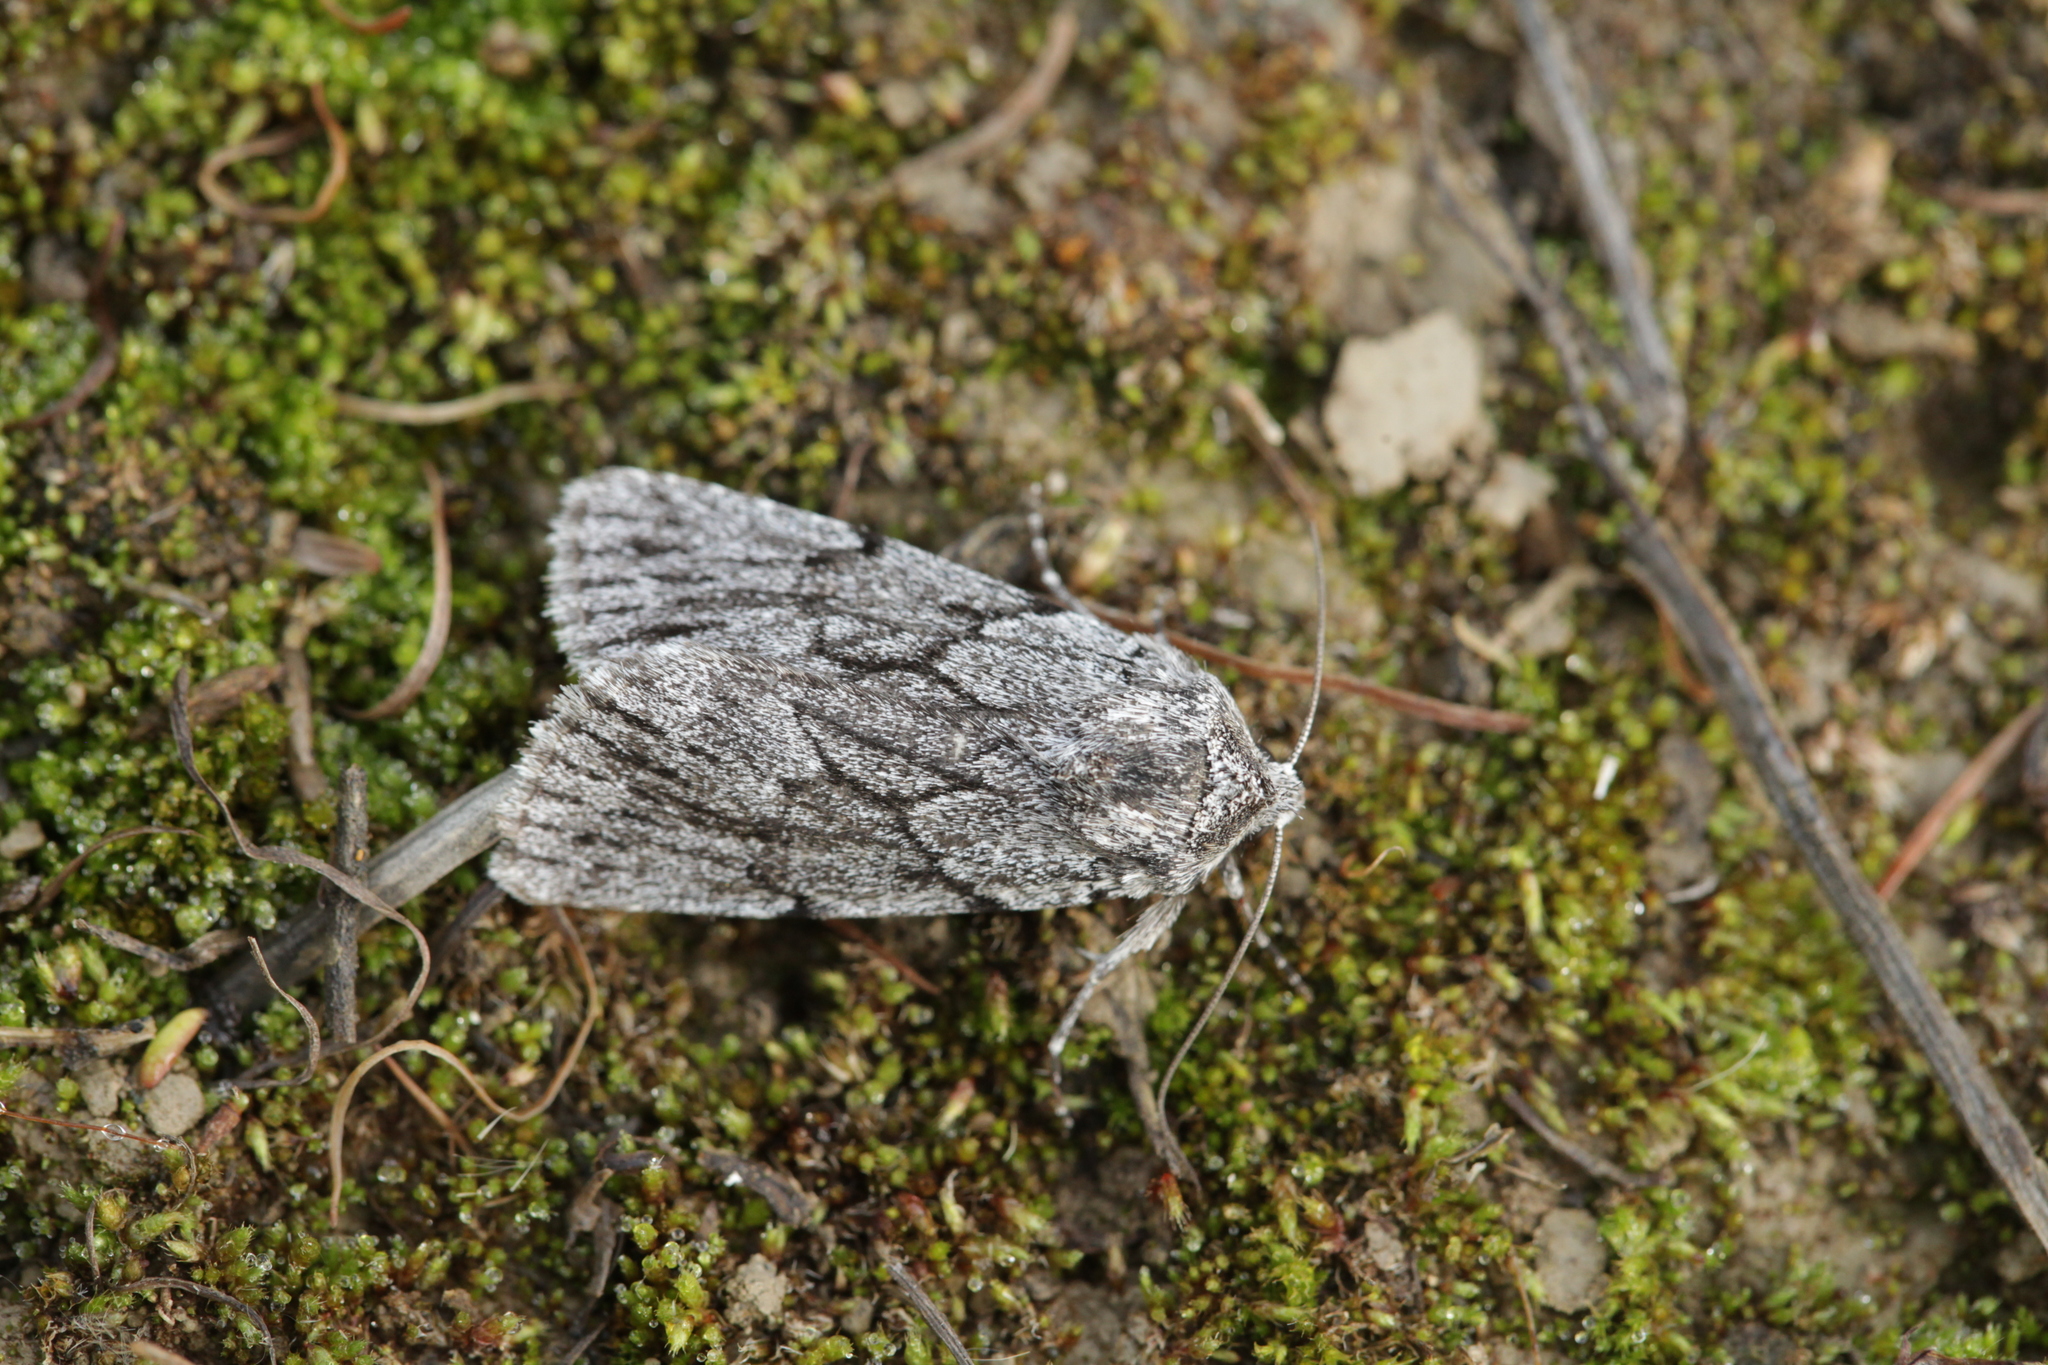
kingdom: Animalia
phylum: Arthropoda
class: Insecta
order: Lepidoptera
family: Noctuidae
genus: Sympistis
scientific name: Sympistis senica
